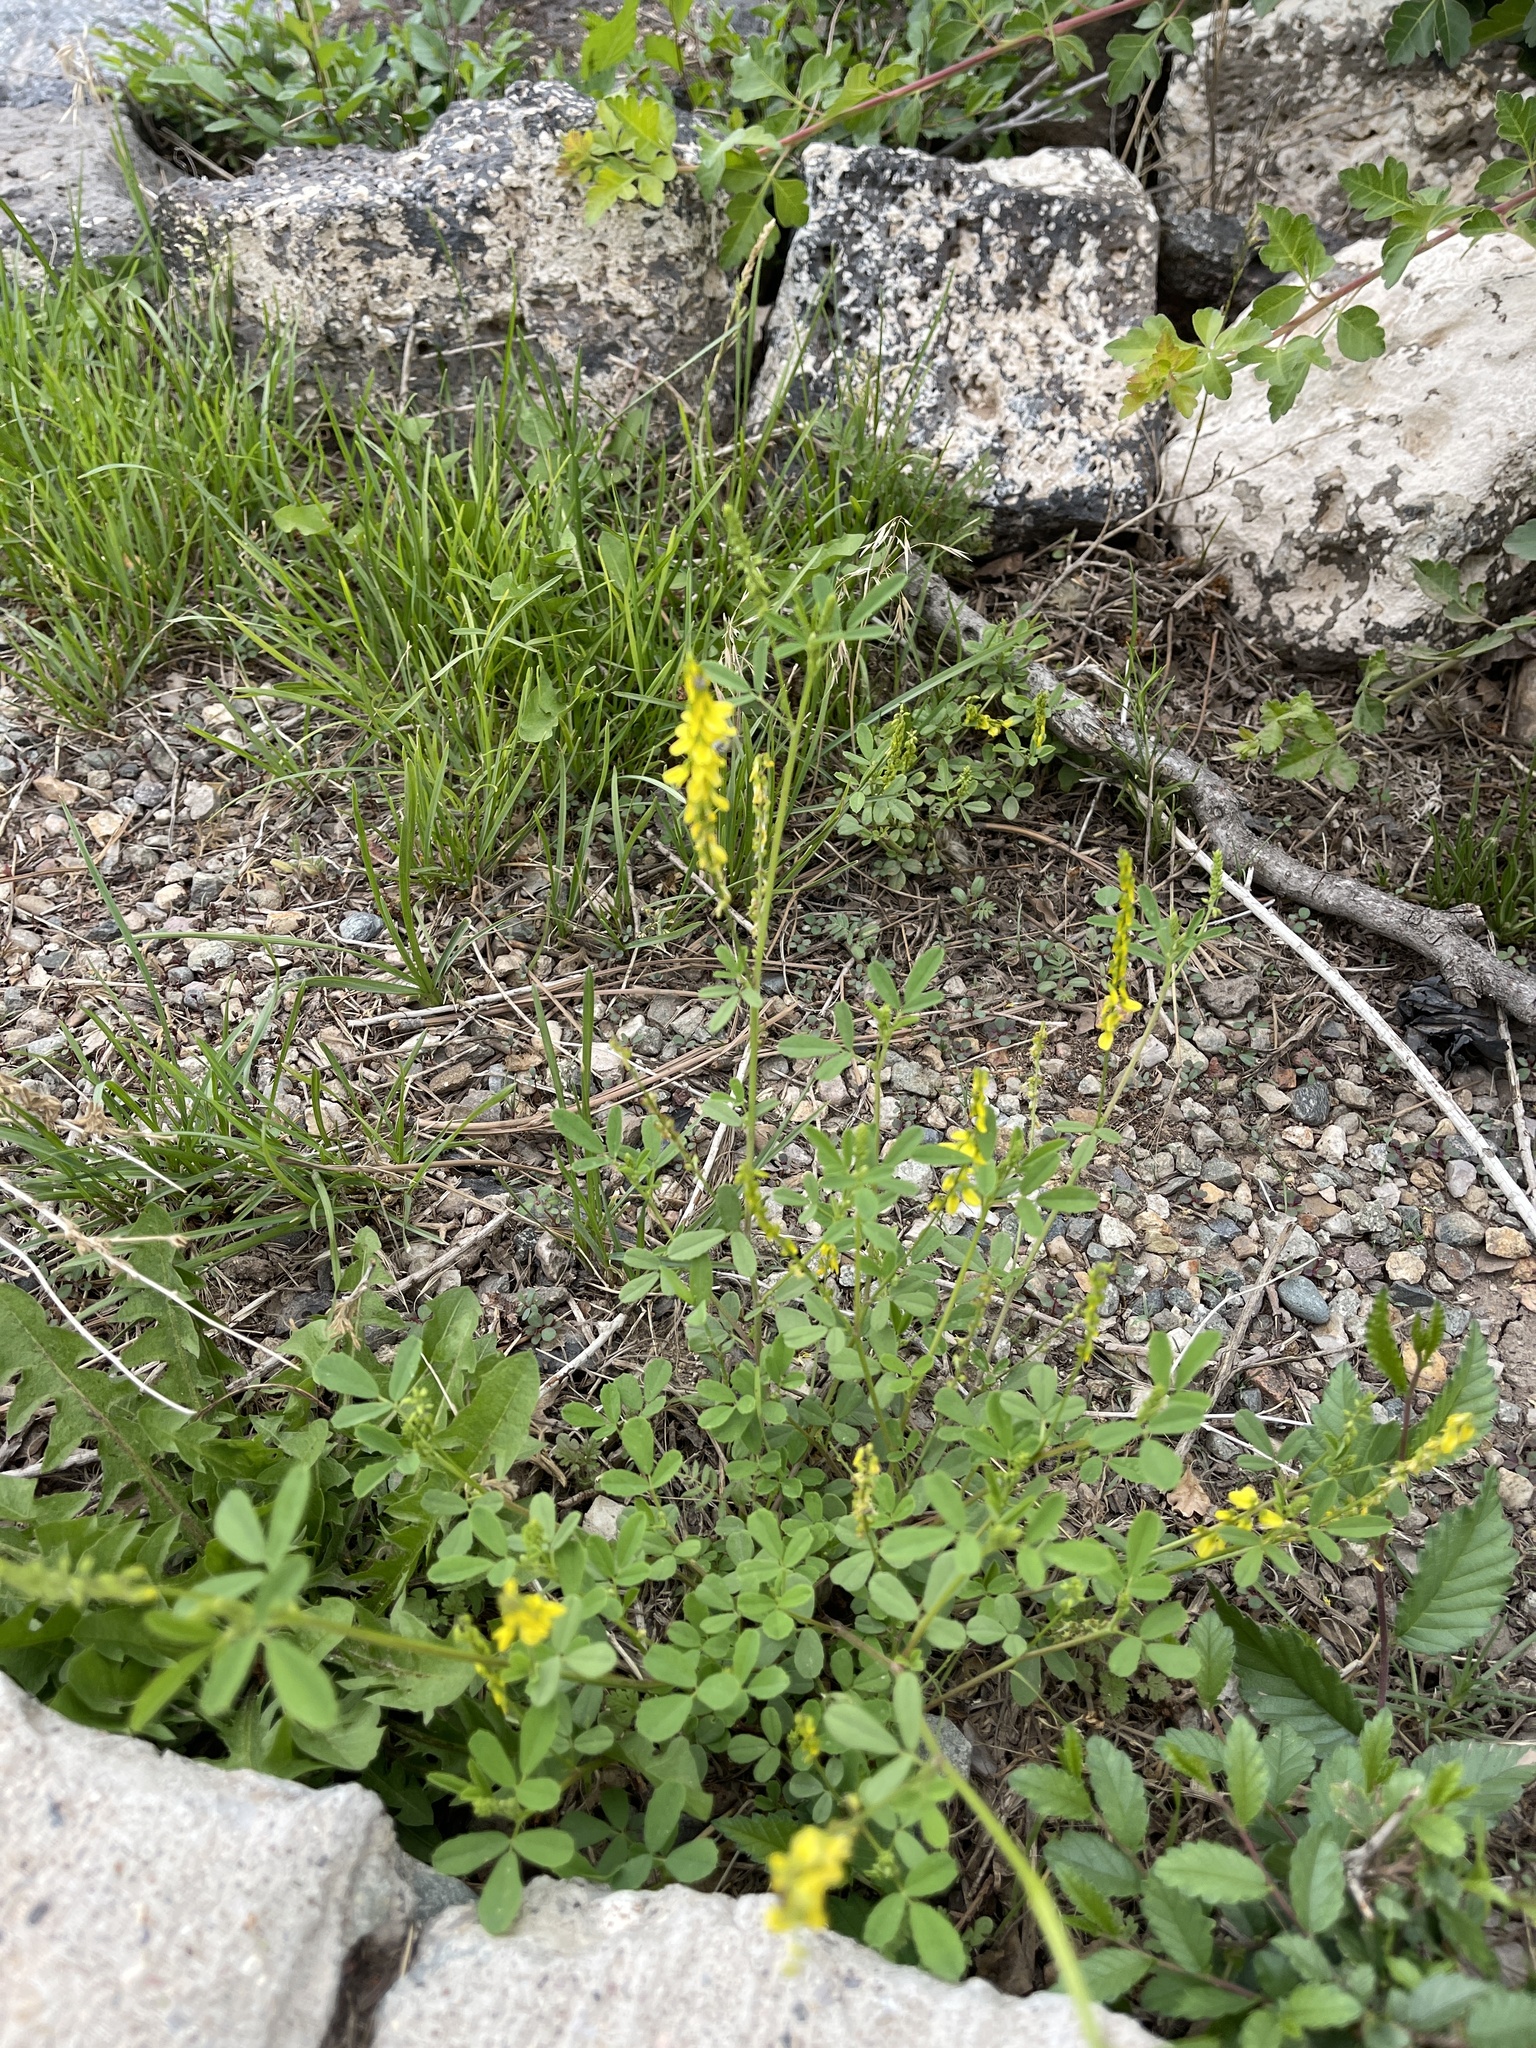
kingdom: Plantae
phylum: Tracheophyta
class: Magnoliopsida
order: Fabales
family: Fabaceae
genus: Melilotus
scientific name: Melilotus officinalis
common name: Sweetclover
